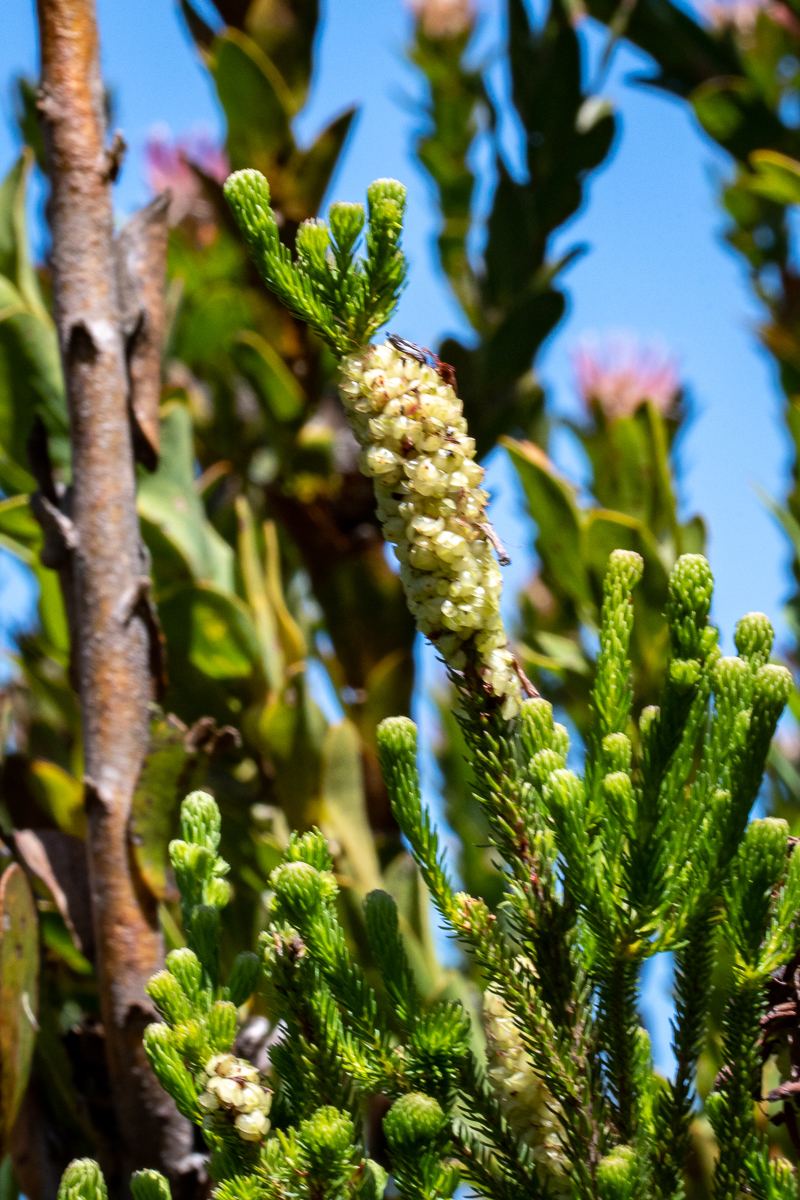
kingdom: Plantae
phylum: Tracheophyta
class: Magnoliopsida
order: Ericales
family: Ericaceae
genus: Erica
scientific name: Erica sessiliflora
